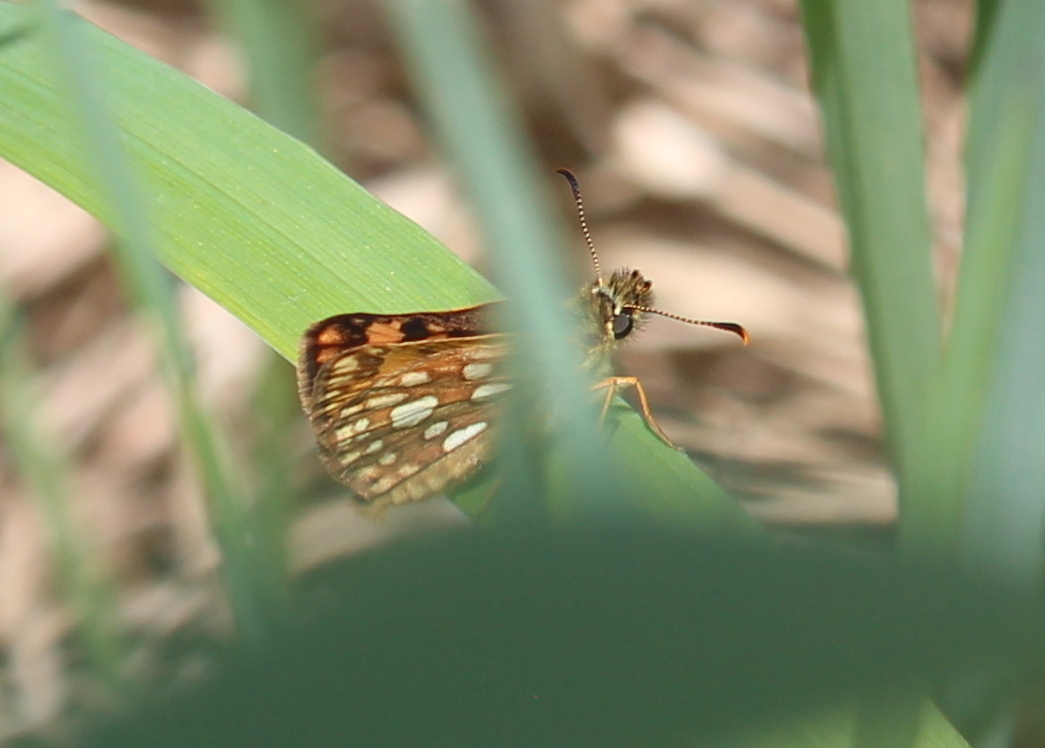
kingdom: Animalia
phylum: Arthropoda
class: Insecta
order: Lepidoptera
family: Hesperiidae
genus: Carterocephalus
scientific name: Carterocephalus mandan
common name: Arctic skipperling
